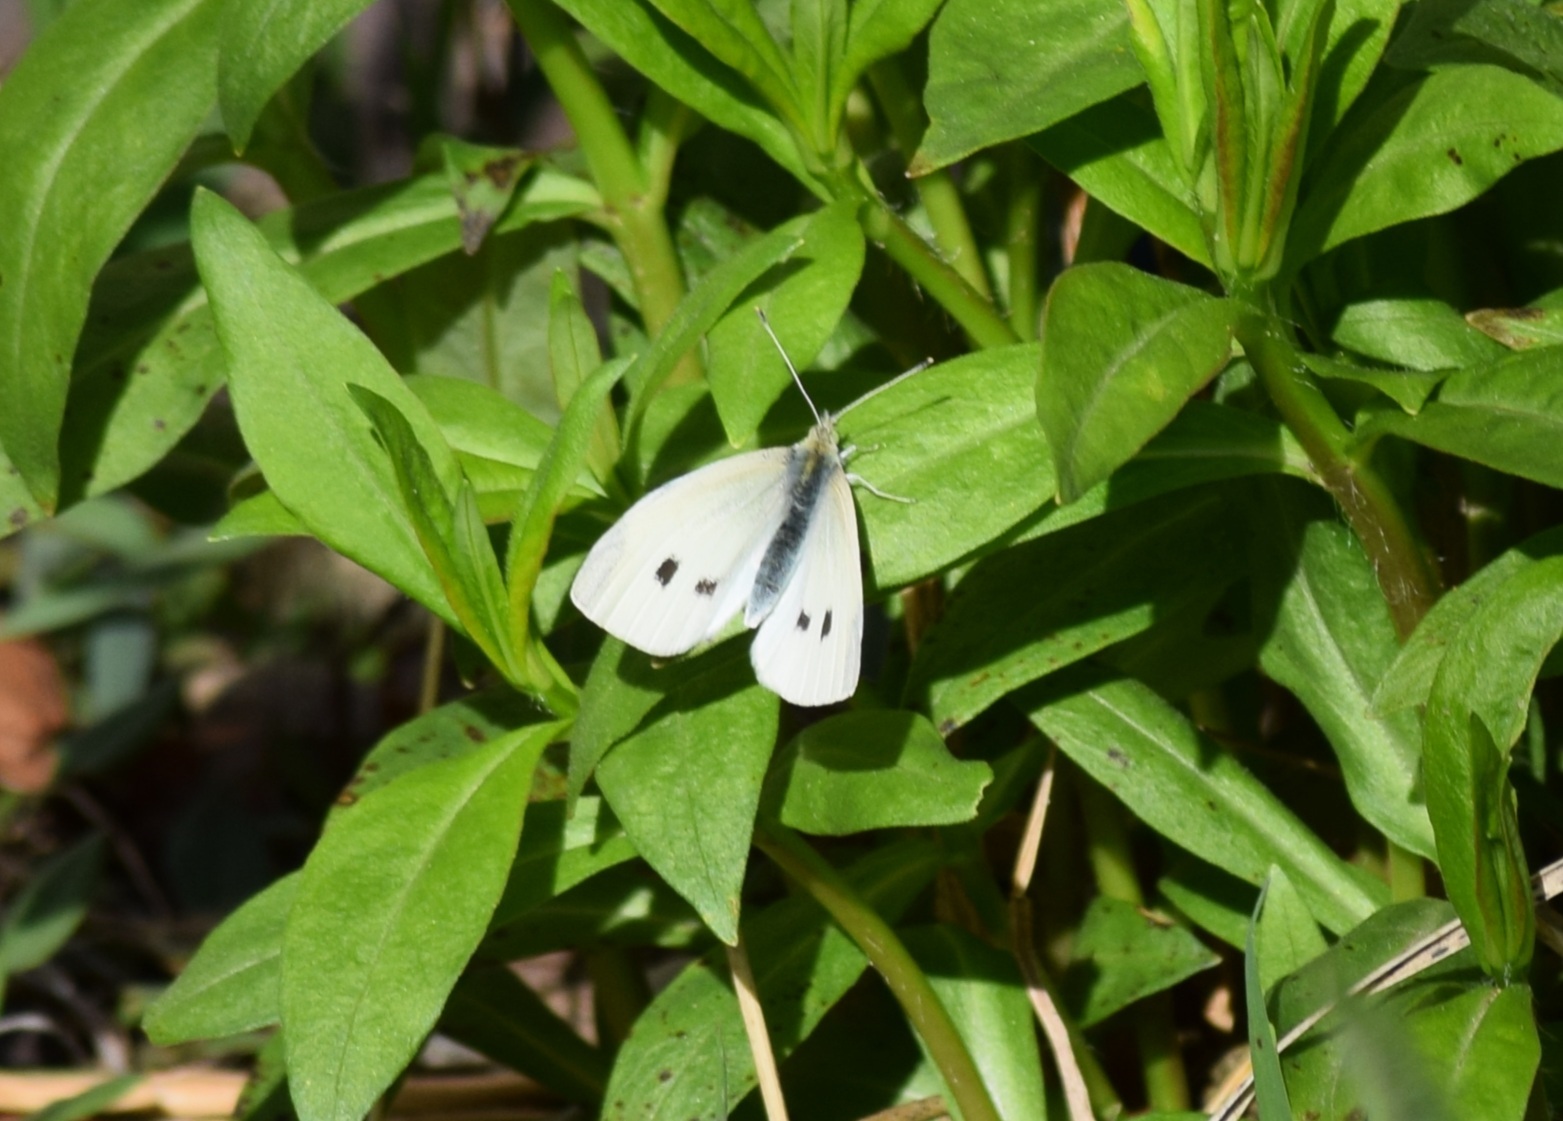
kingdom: Animalia
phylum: Arthropoda
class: Insecta
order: Lepidoptera
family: Pieridae
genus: Pieris
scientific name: Pieris rapae
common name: Small white
